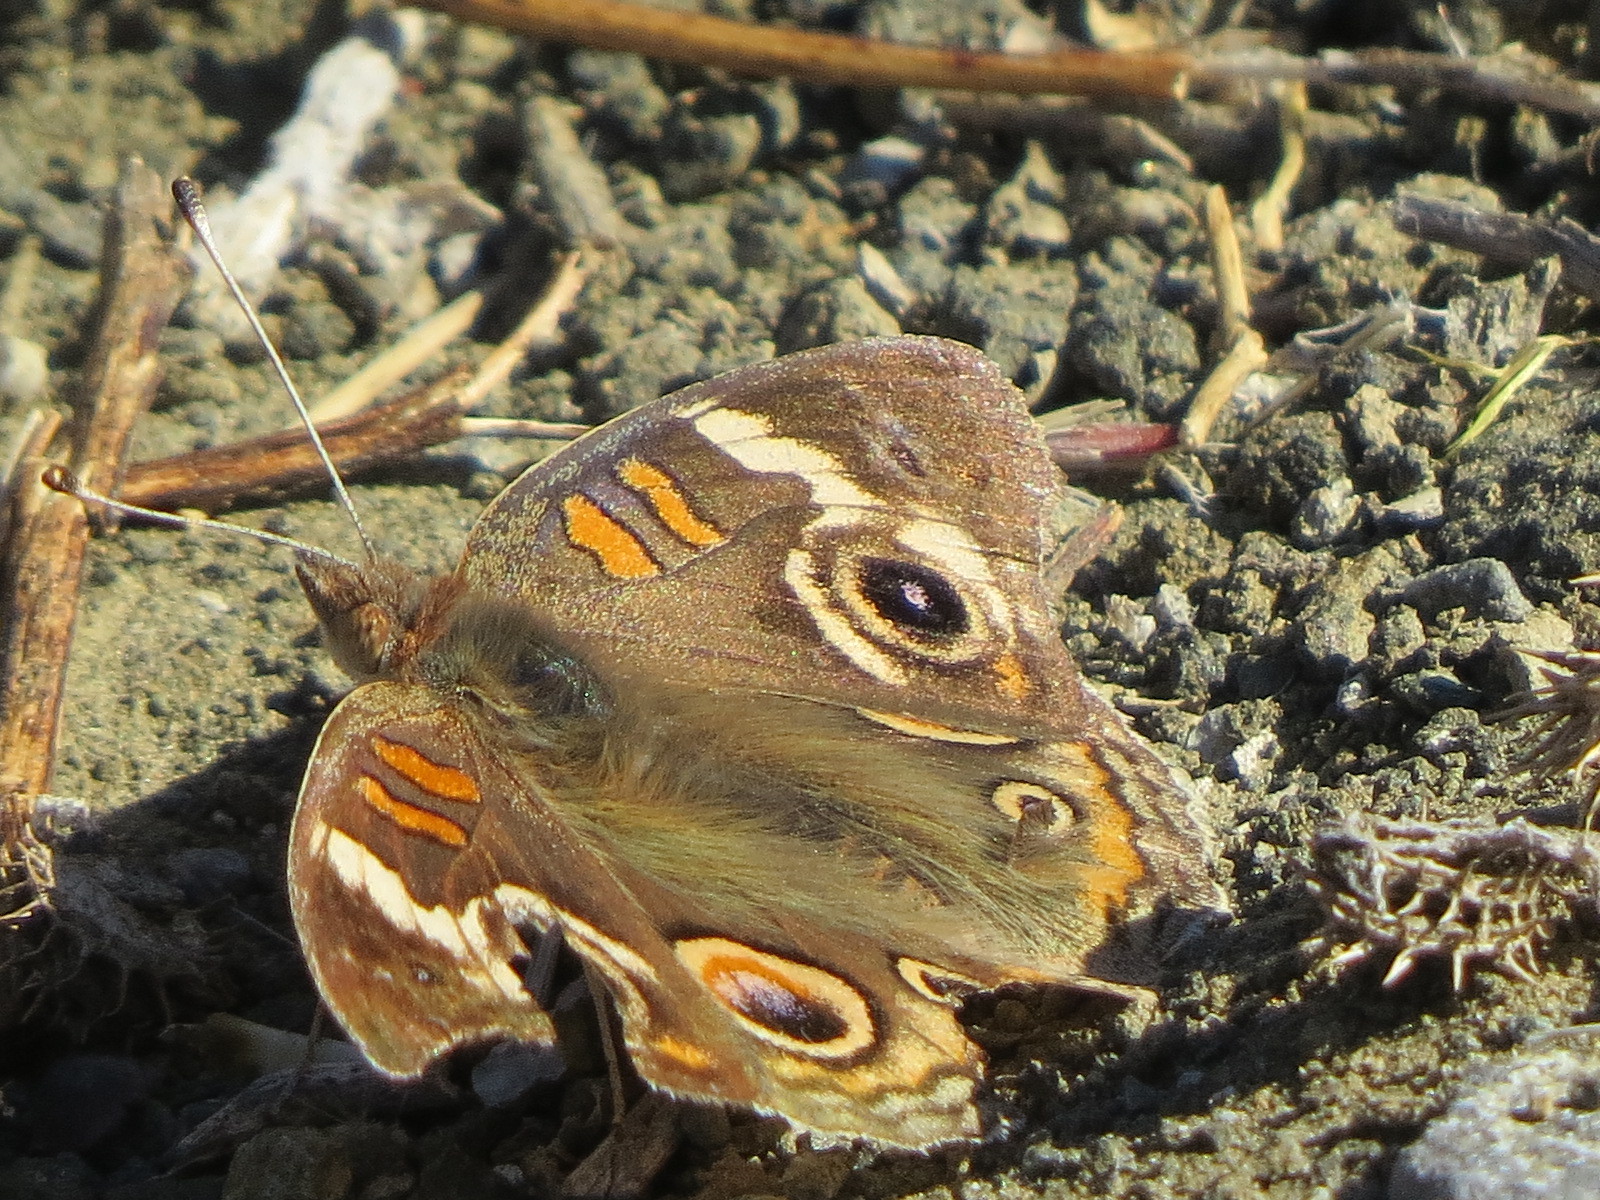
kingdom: Animalia
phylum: Arthropoda
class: Insecta
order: Lepidoptera
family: Nymphalidae
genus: Junonia
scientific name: Junonia grisea
